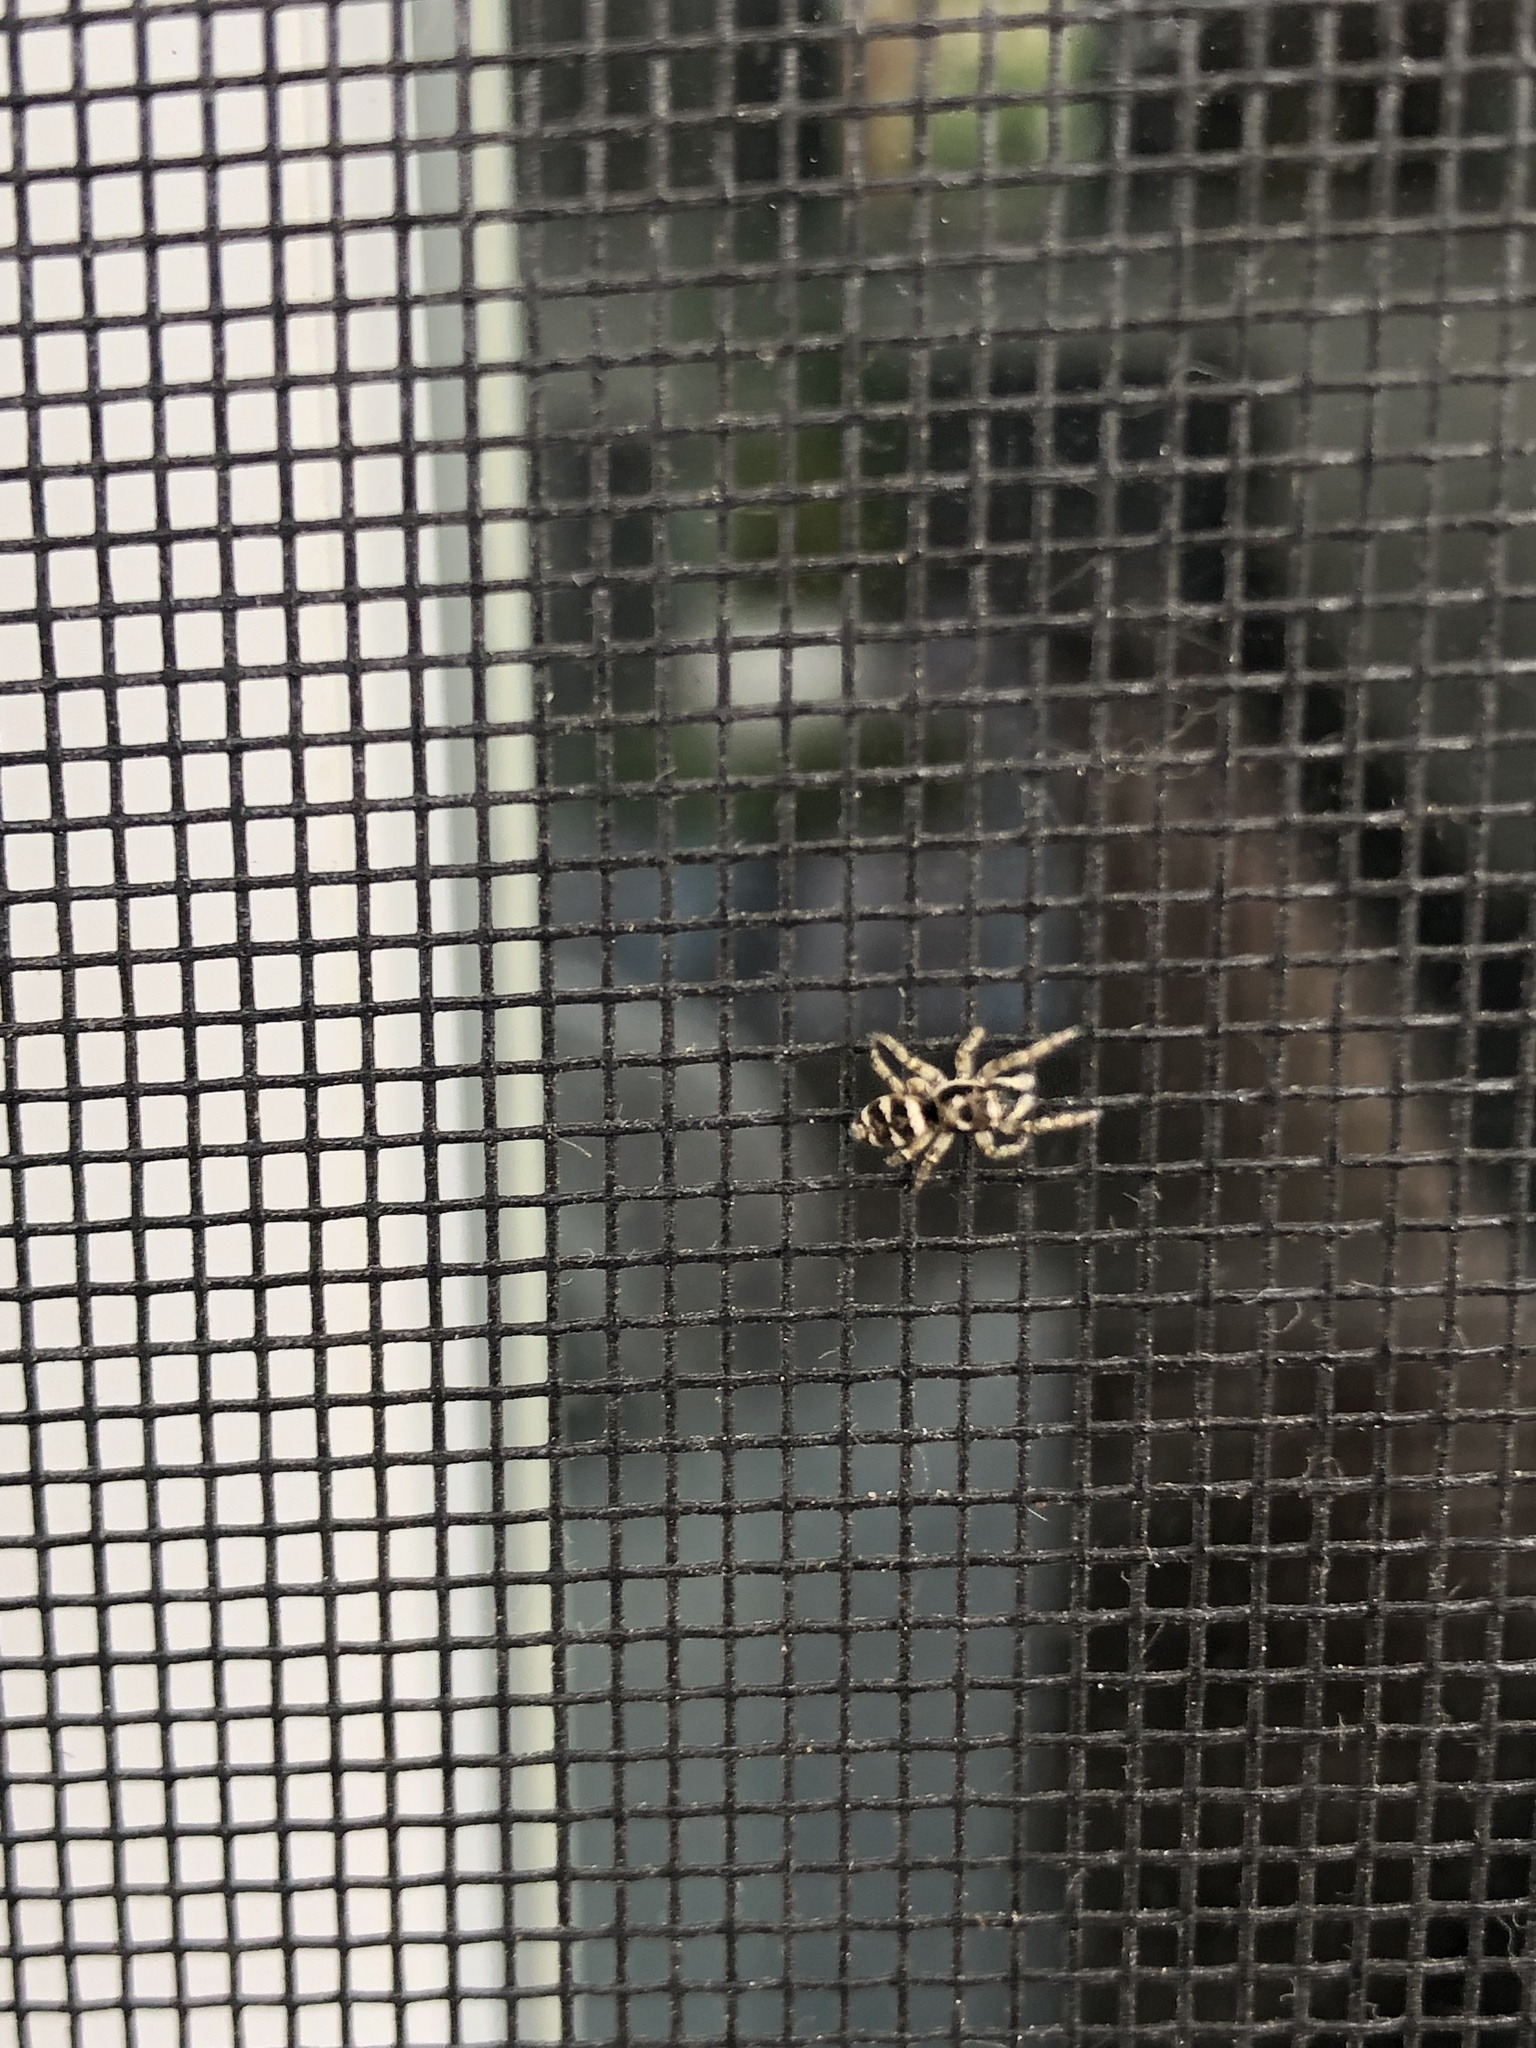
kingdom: Animalia
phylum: Arthropoda
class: Arachnida
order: Araneae
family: Salticidae
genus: Salticus
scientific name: Salticus scenicus
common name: Zebra jumper
